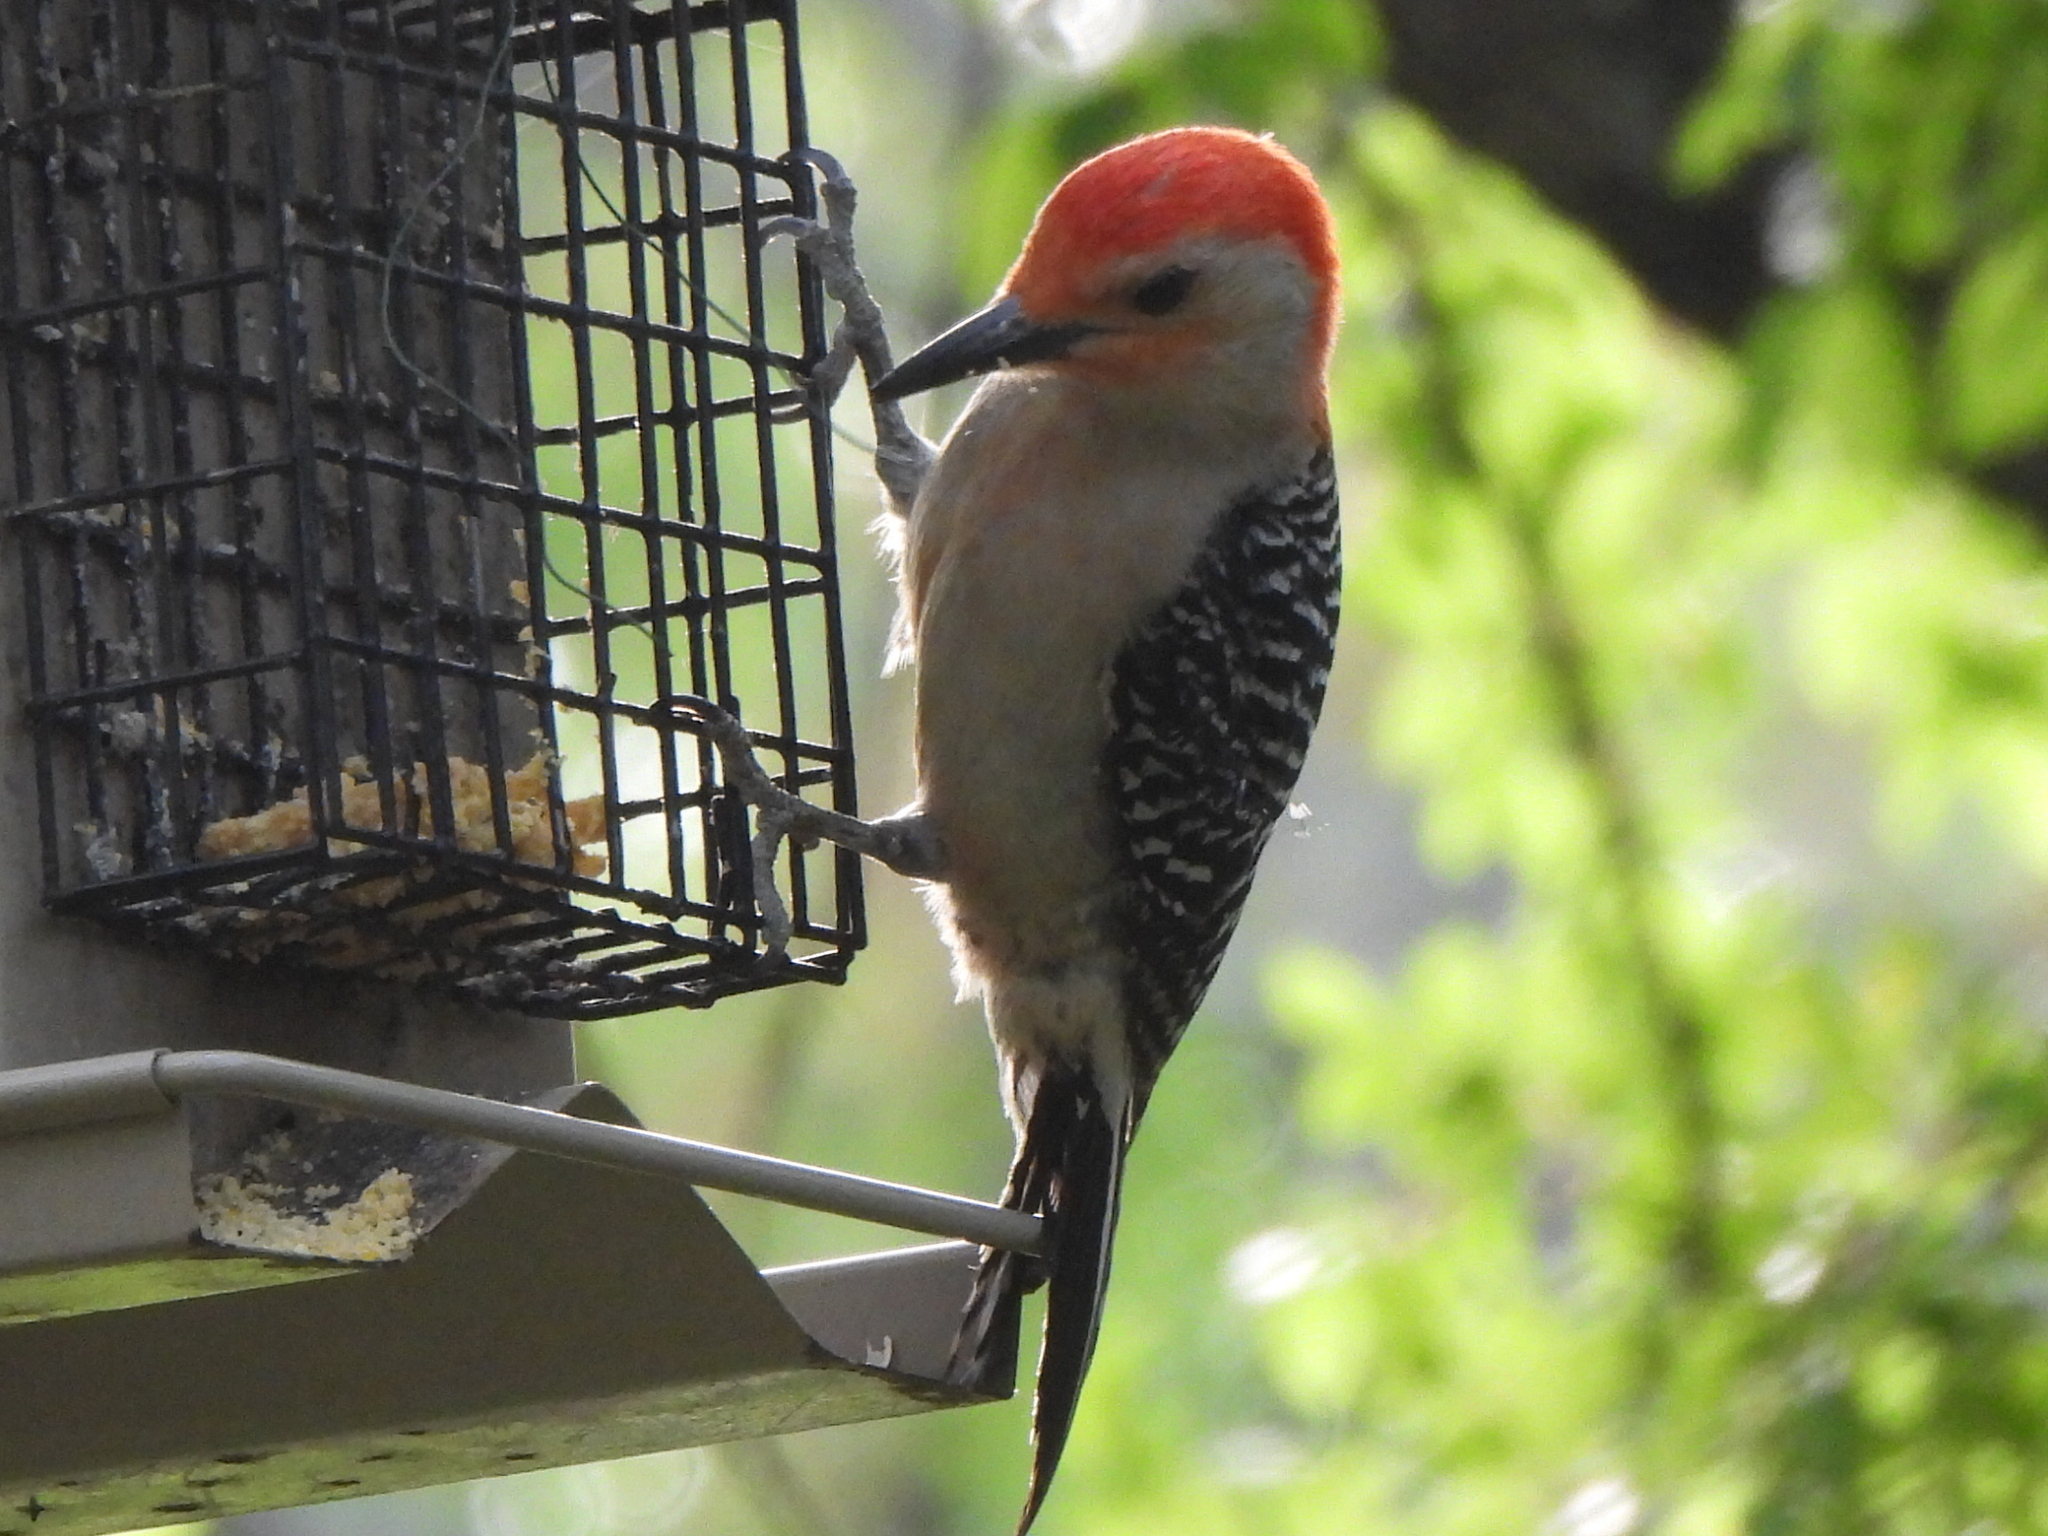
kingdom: Animalia
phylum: Chordata
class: Aves
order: Piciformes
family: Picidae
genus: Melanerpes
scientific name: Melanerpes carolinus
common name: Red-bellied woodpecker
